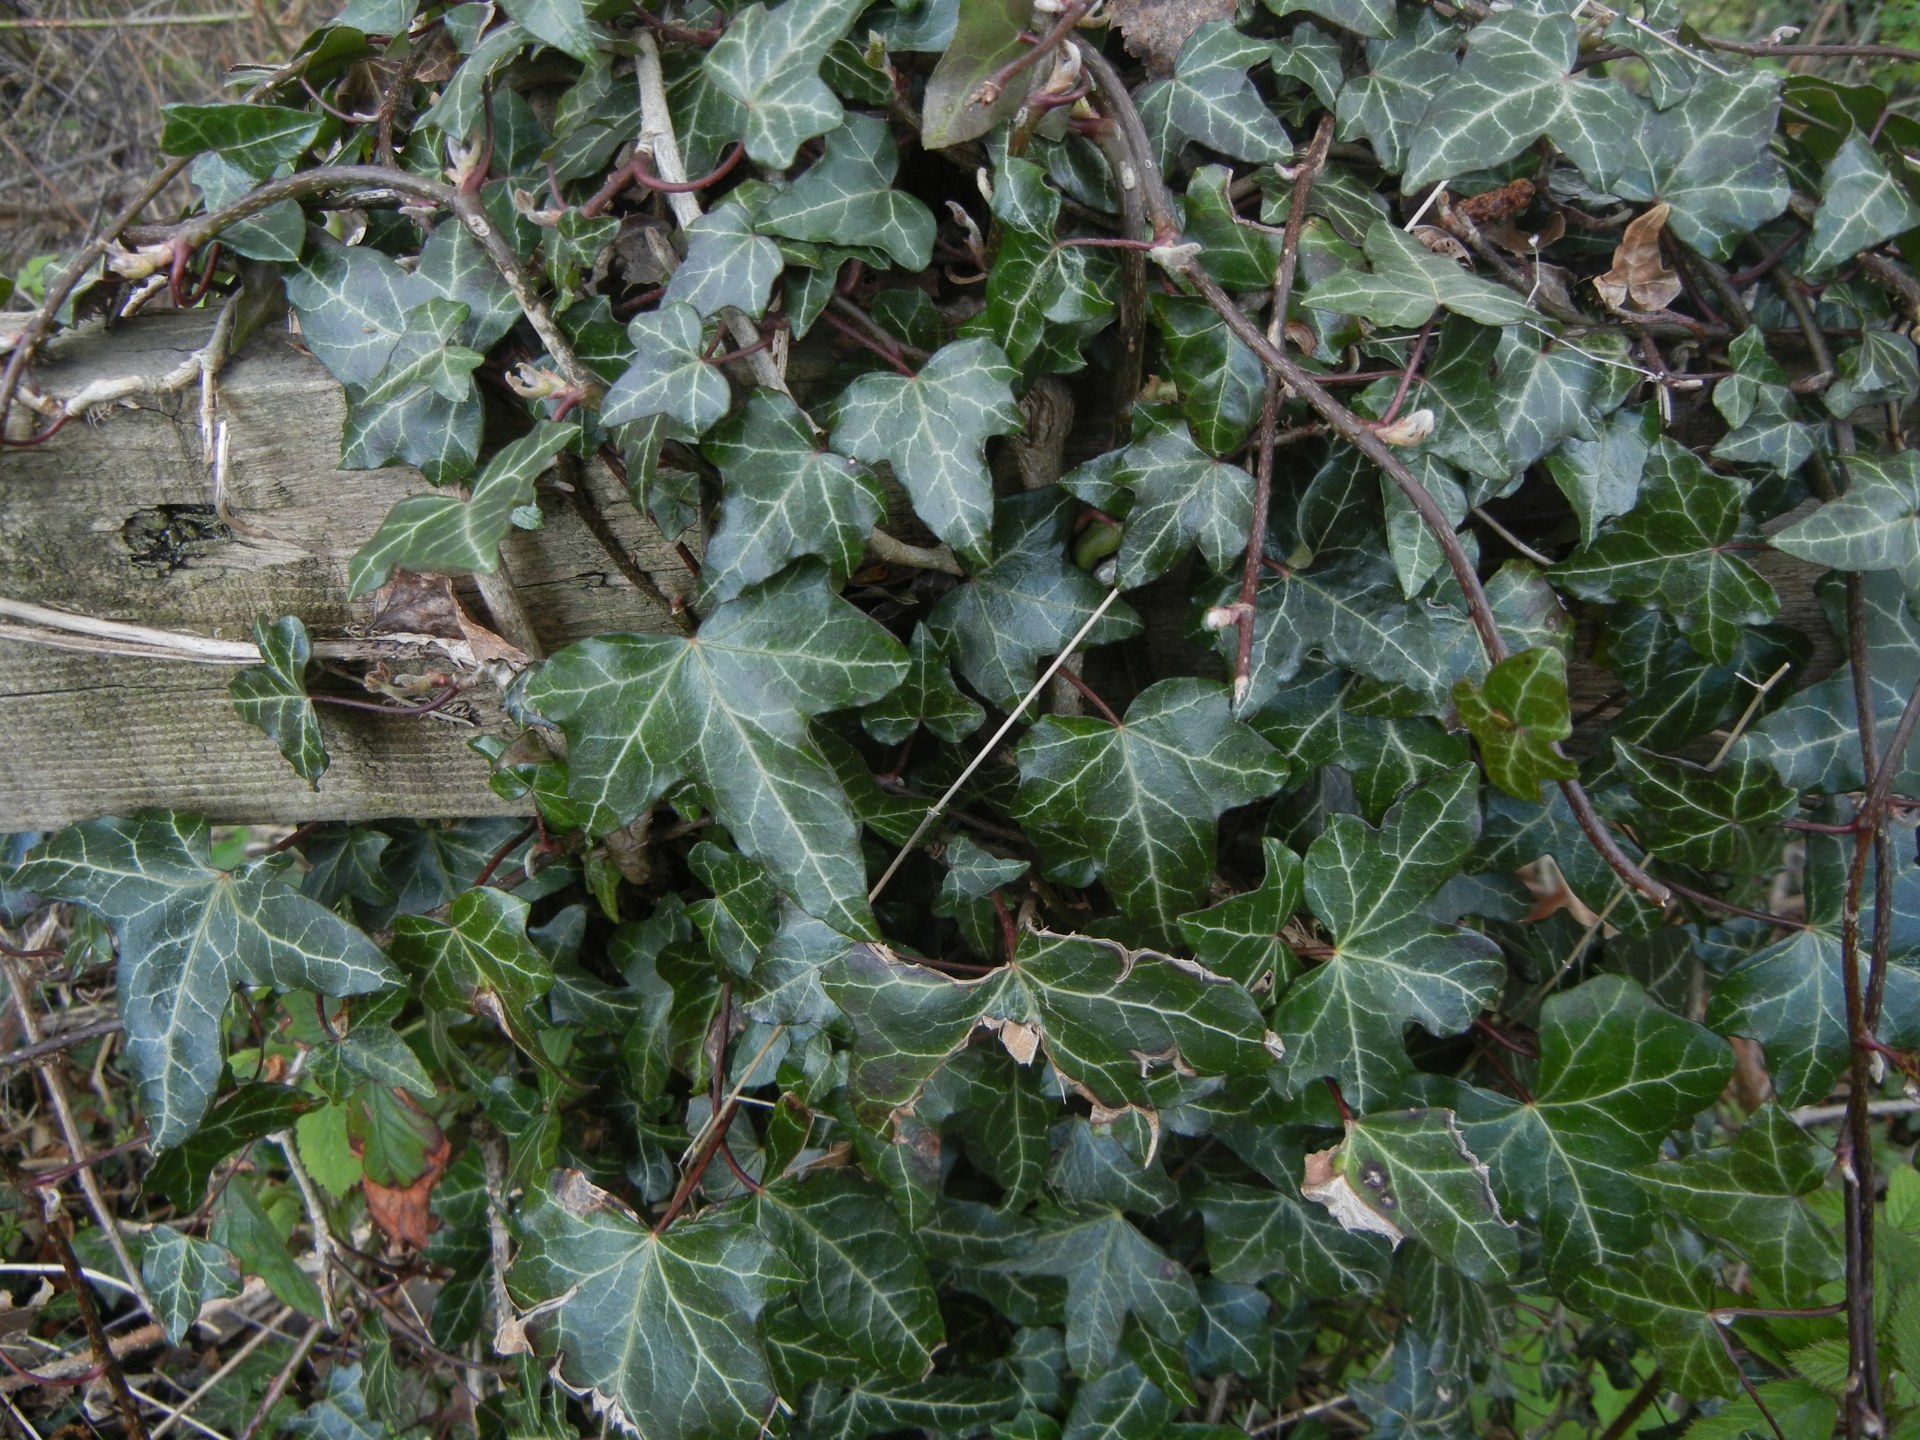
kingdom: Plantae
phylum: Tracheophyta
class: Magnoliopsida
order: Apiales
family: Araliaceae
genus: Hedera
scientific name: Hedera helix
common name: Ivy
